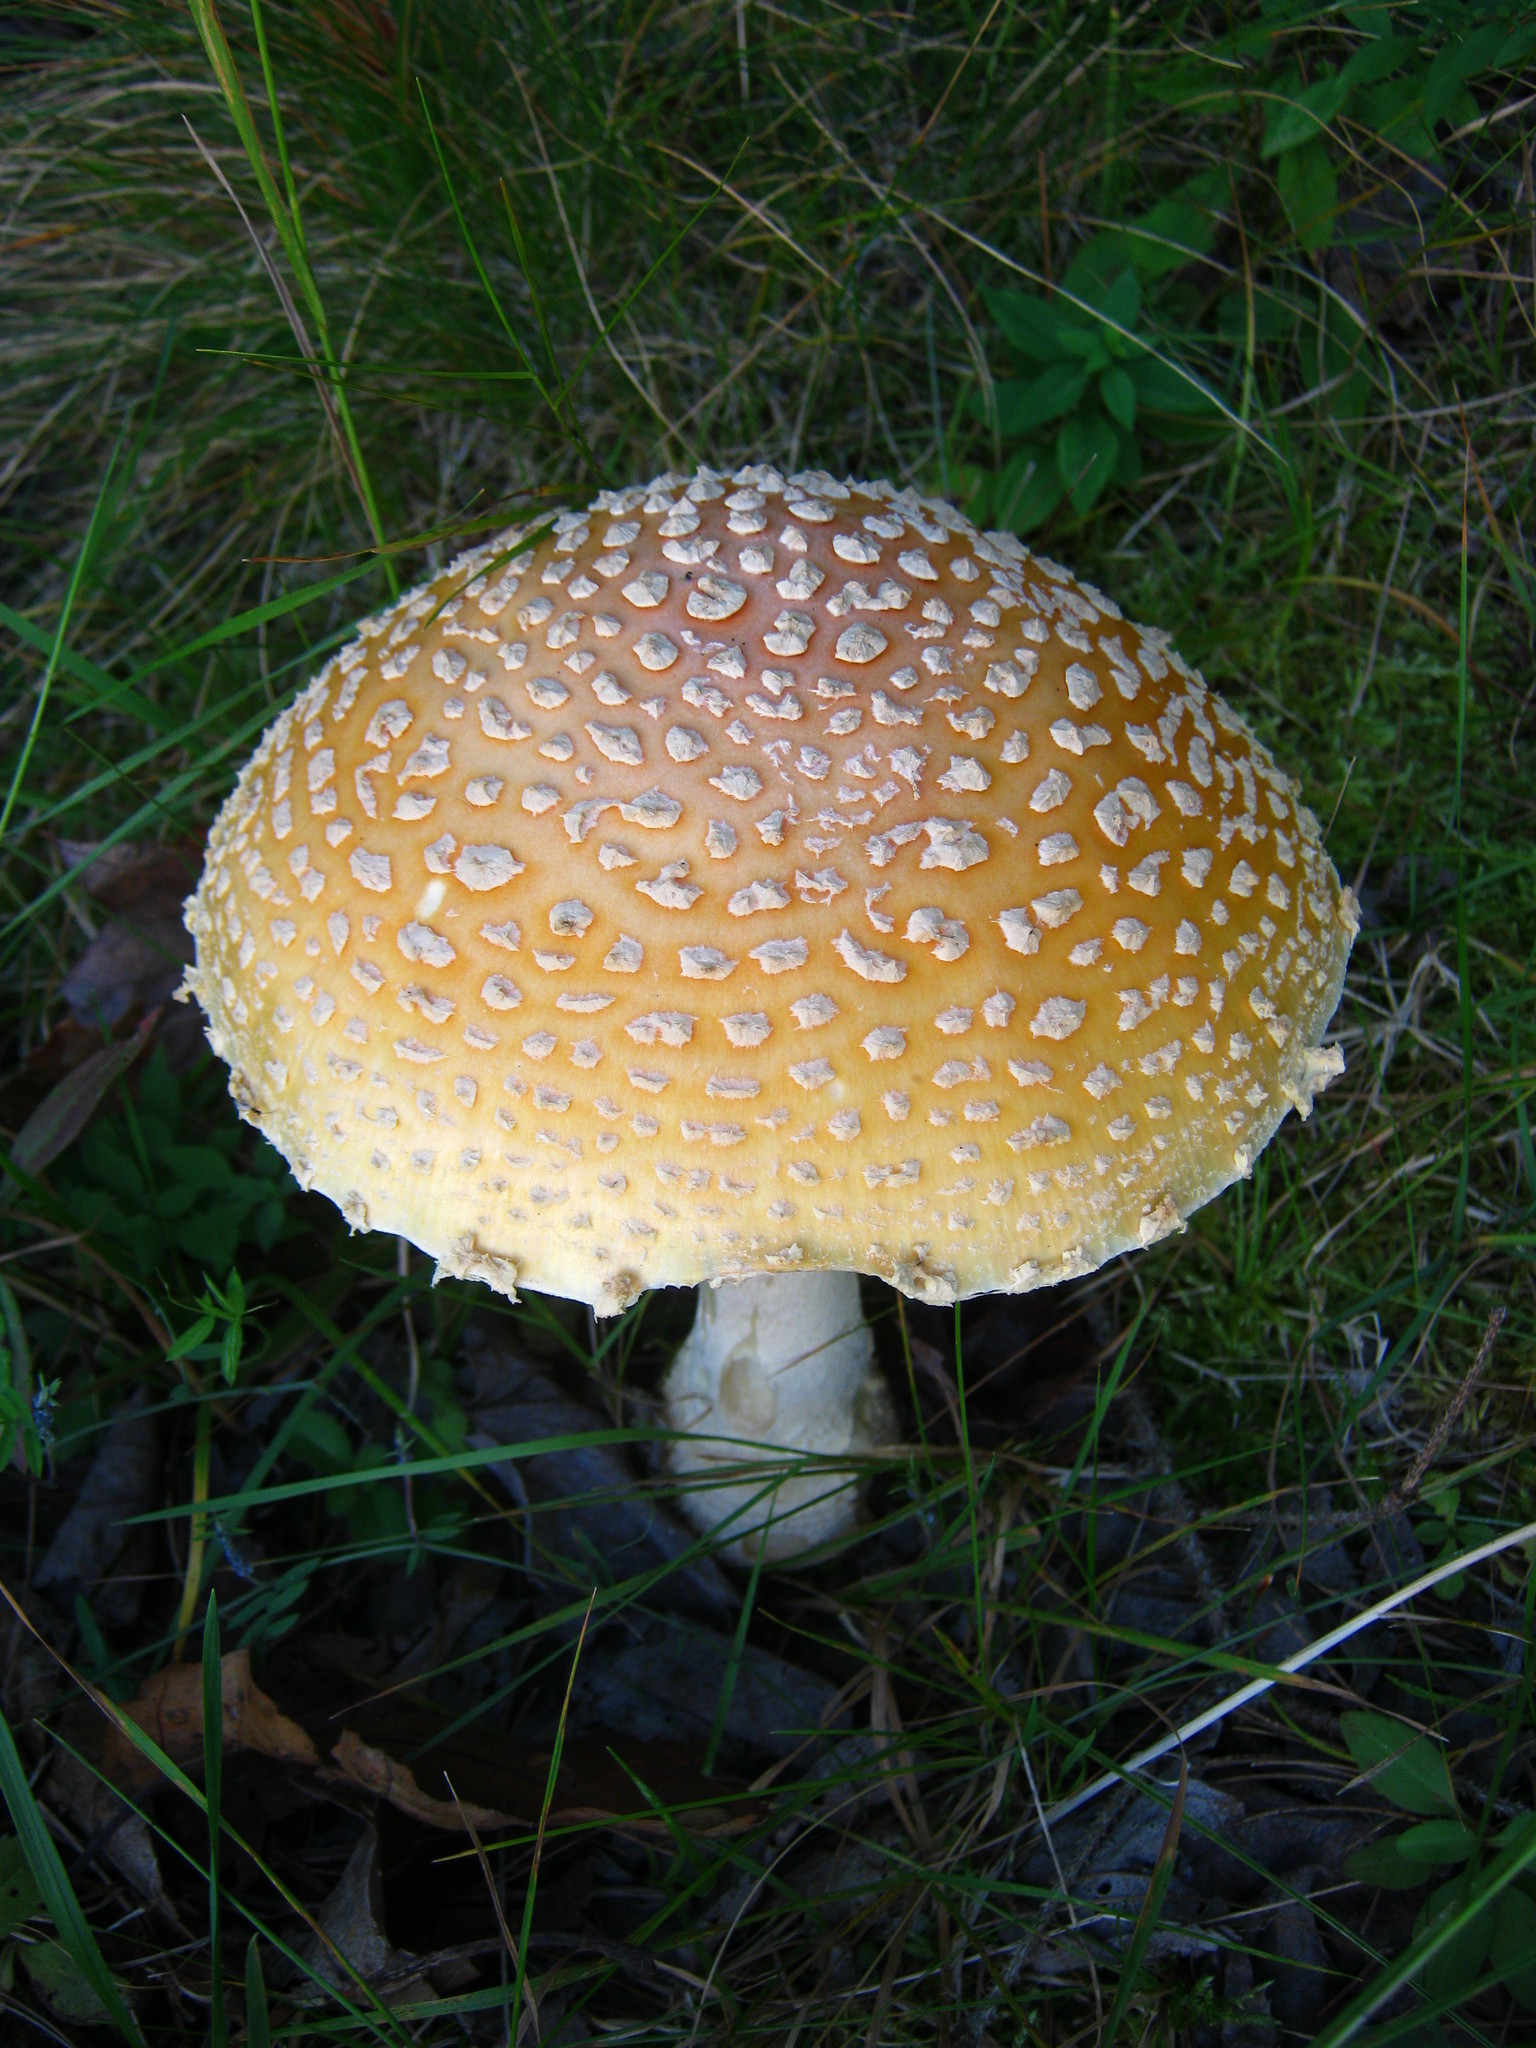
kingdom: Fungi
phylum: Basidiomycota
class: Agaricomycetes
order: Agaricales
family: Amanitaceae
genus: Amanita
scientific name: Amanita muscaria
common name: Fly agaric
